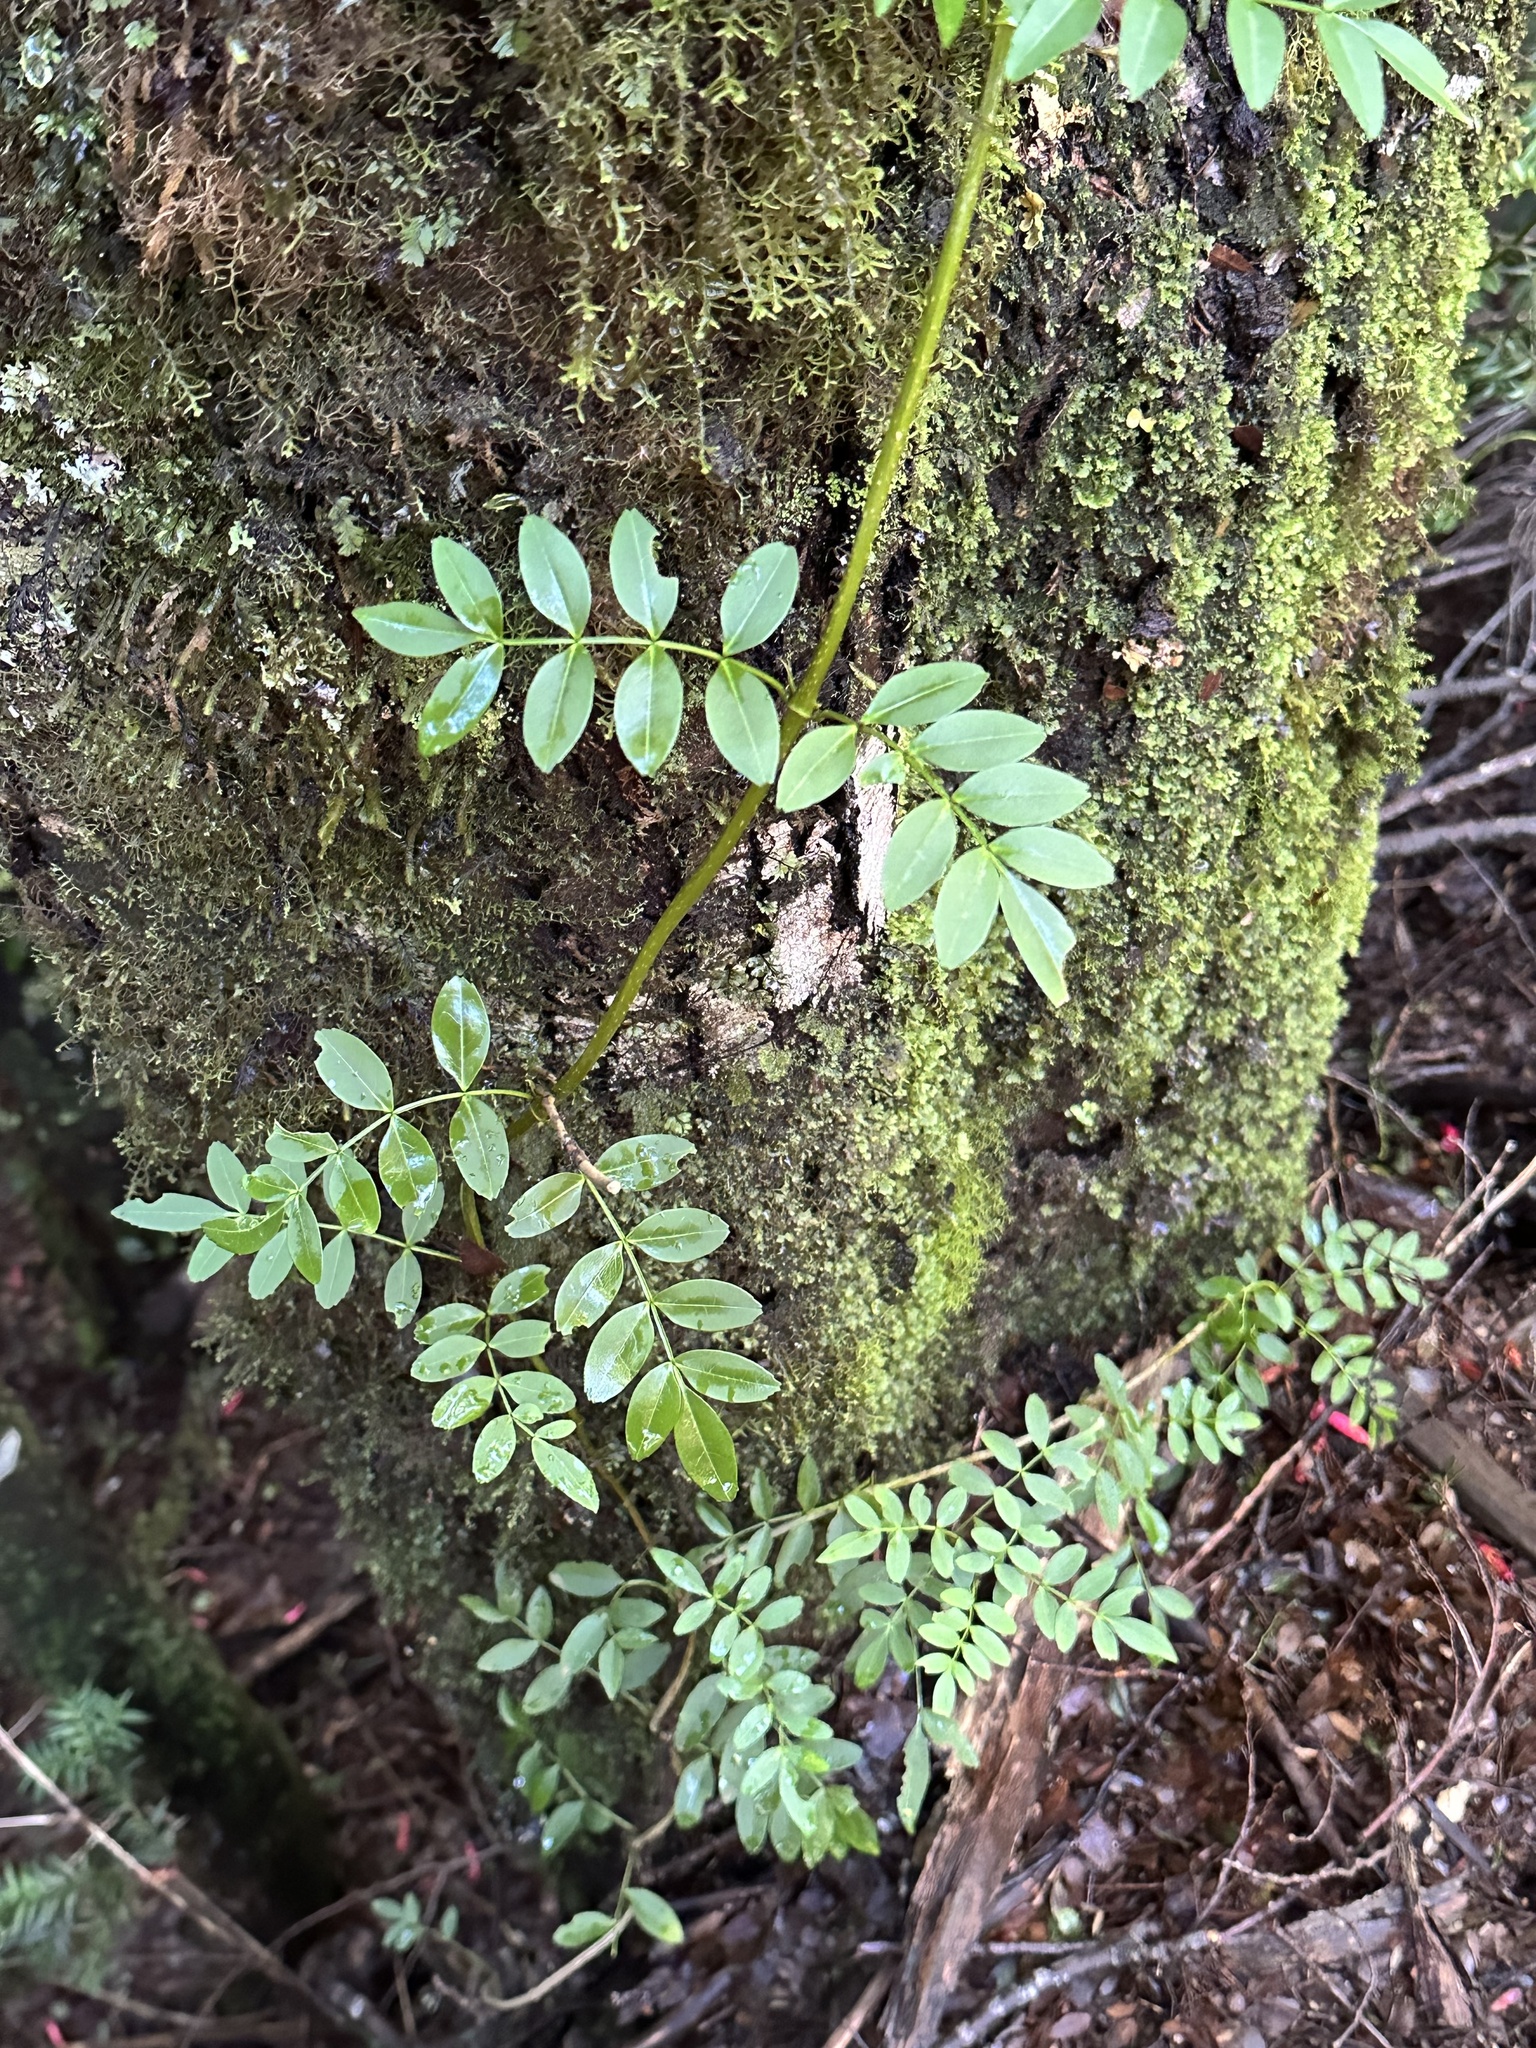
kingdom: Plantae
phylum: Tracheophyta
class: Magnoliopsida
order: Lamiales
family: Bignoniaceae
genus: Campsidium
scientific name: Campsidium valdivianum
